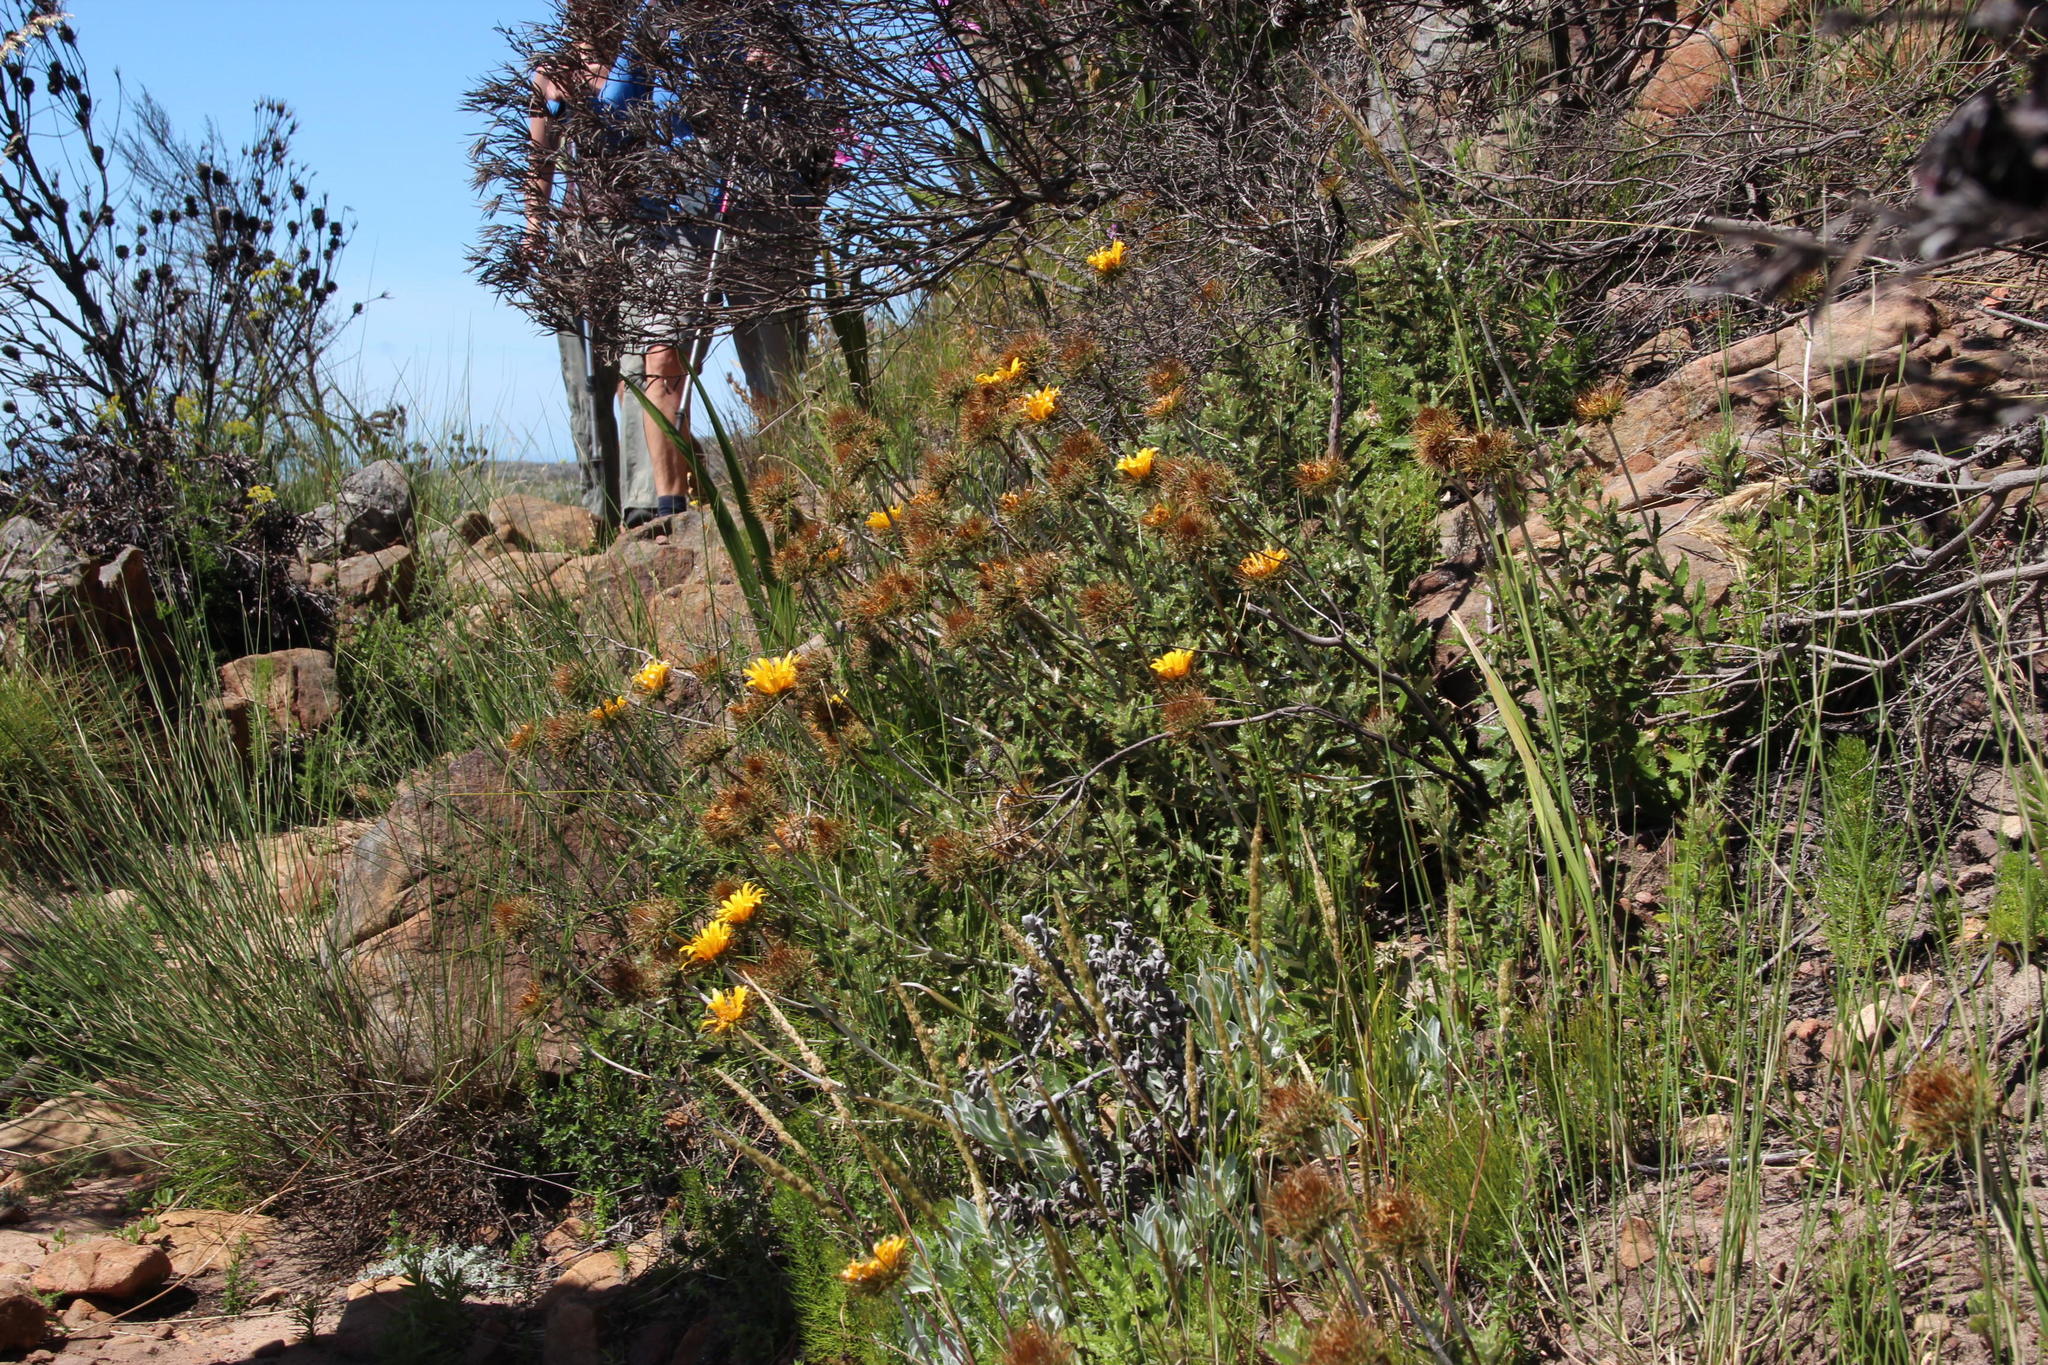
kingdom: Plantae
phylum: Tracheophyta
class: Magnoliopsida
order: Asterales
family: Asteraceae
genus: Berkheya
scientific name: Berkheya barbata
